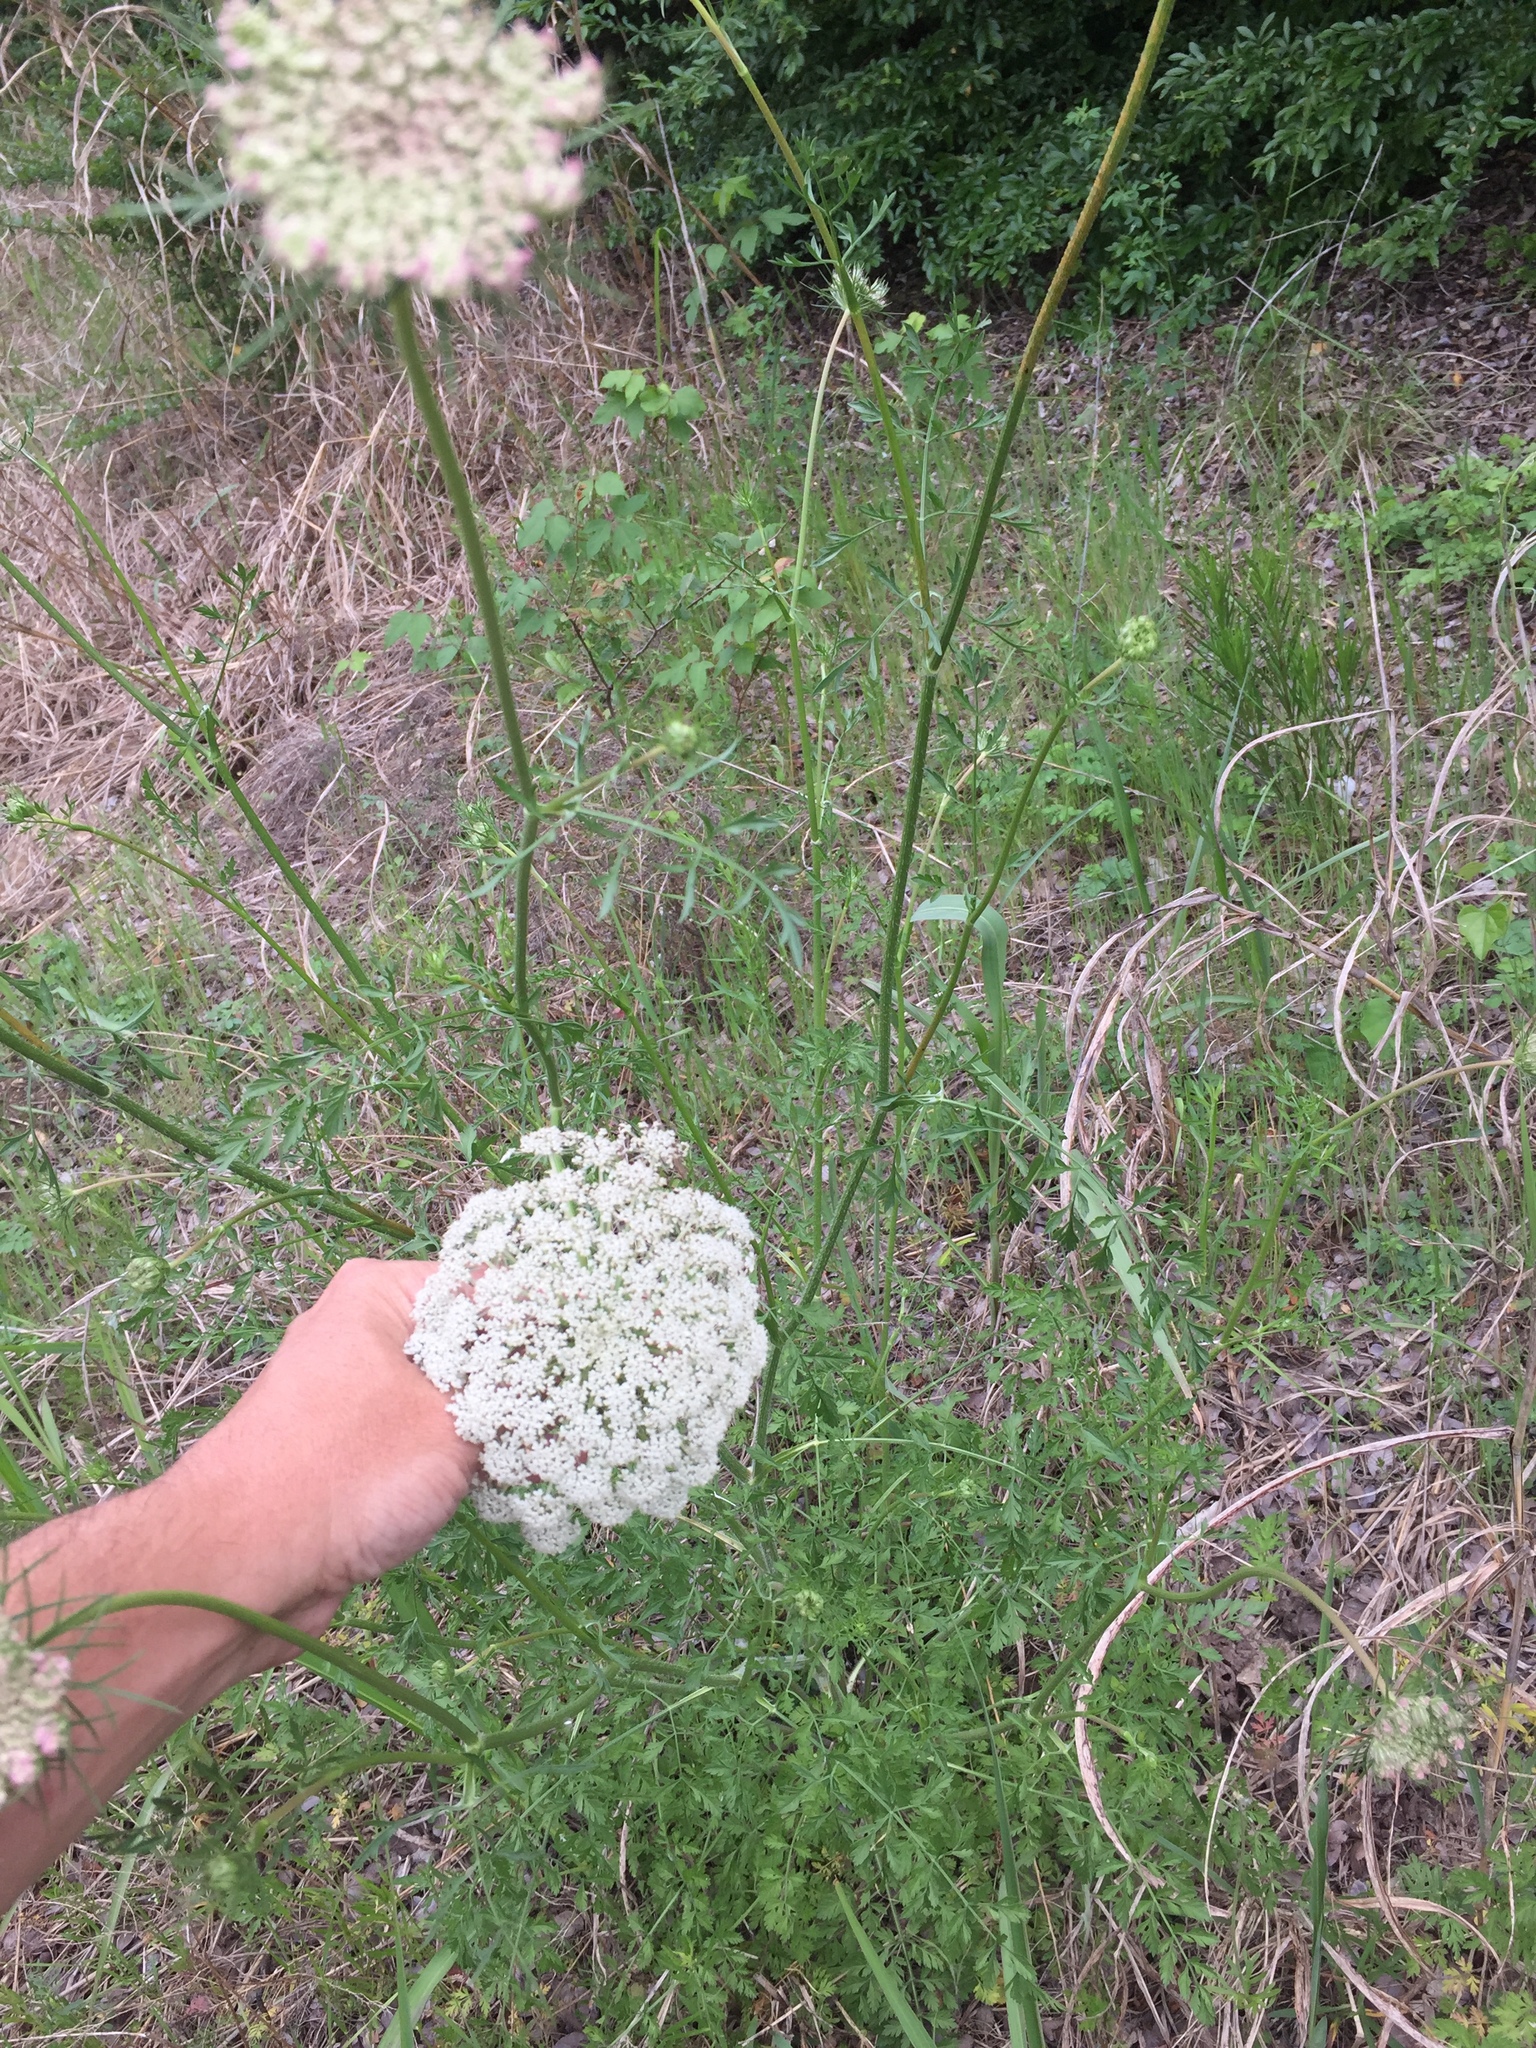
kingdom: Plantae
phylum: Tracheophyta
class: Magnoliopsida
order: Apiales
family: Apiaceae
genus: Daucus
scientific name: Daucus carota
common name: Wild carrot
